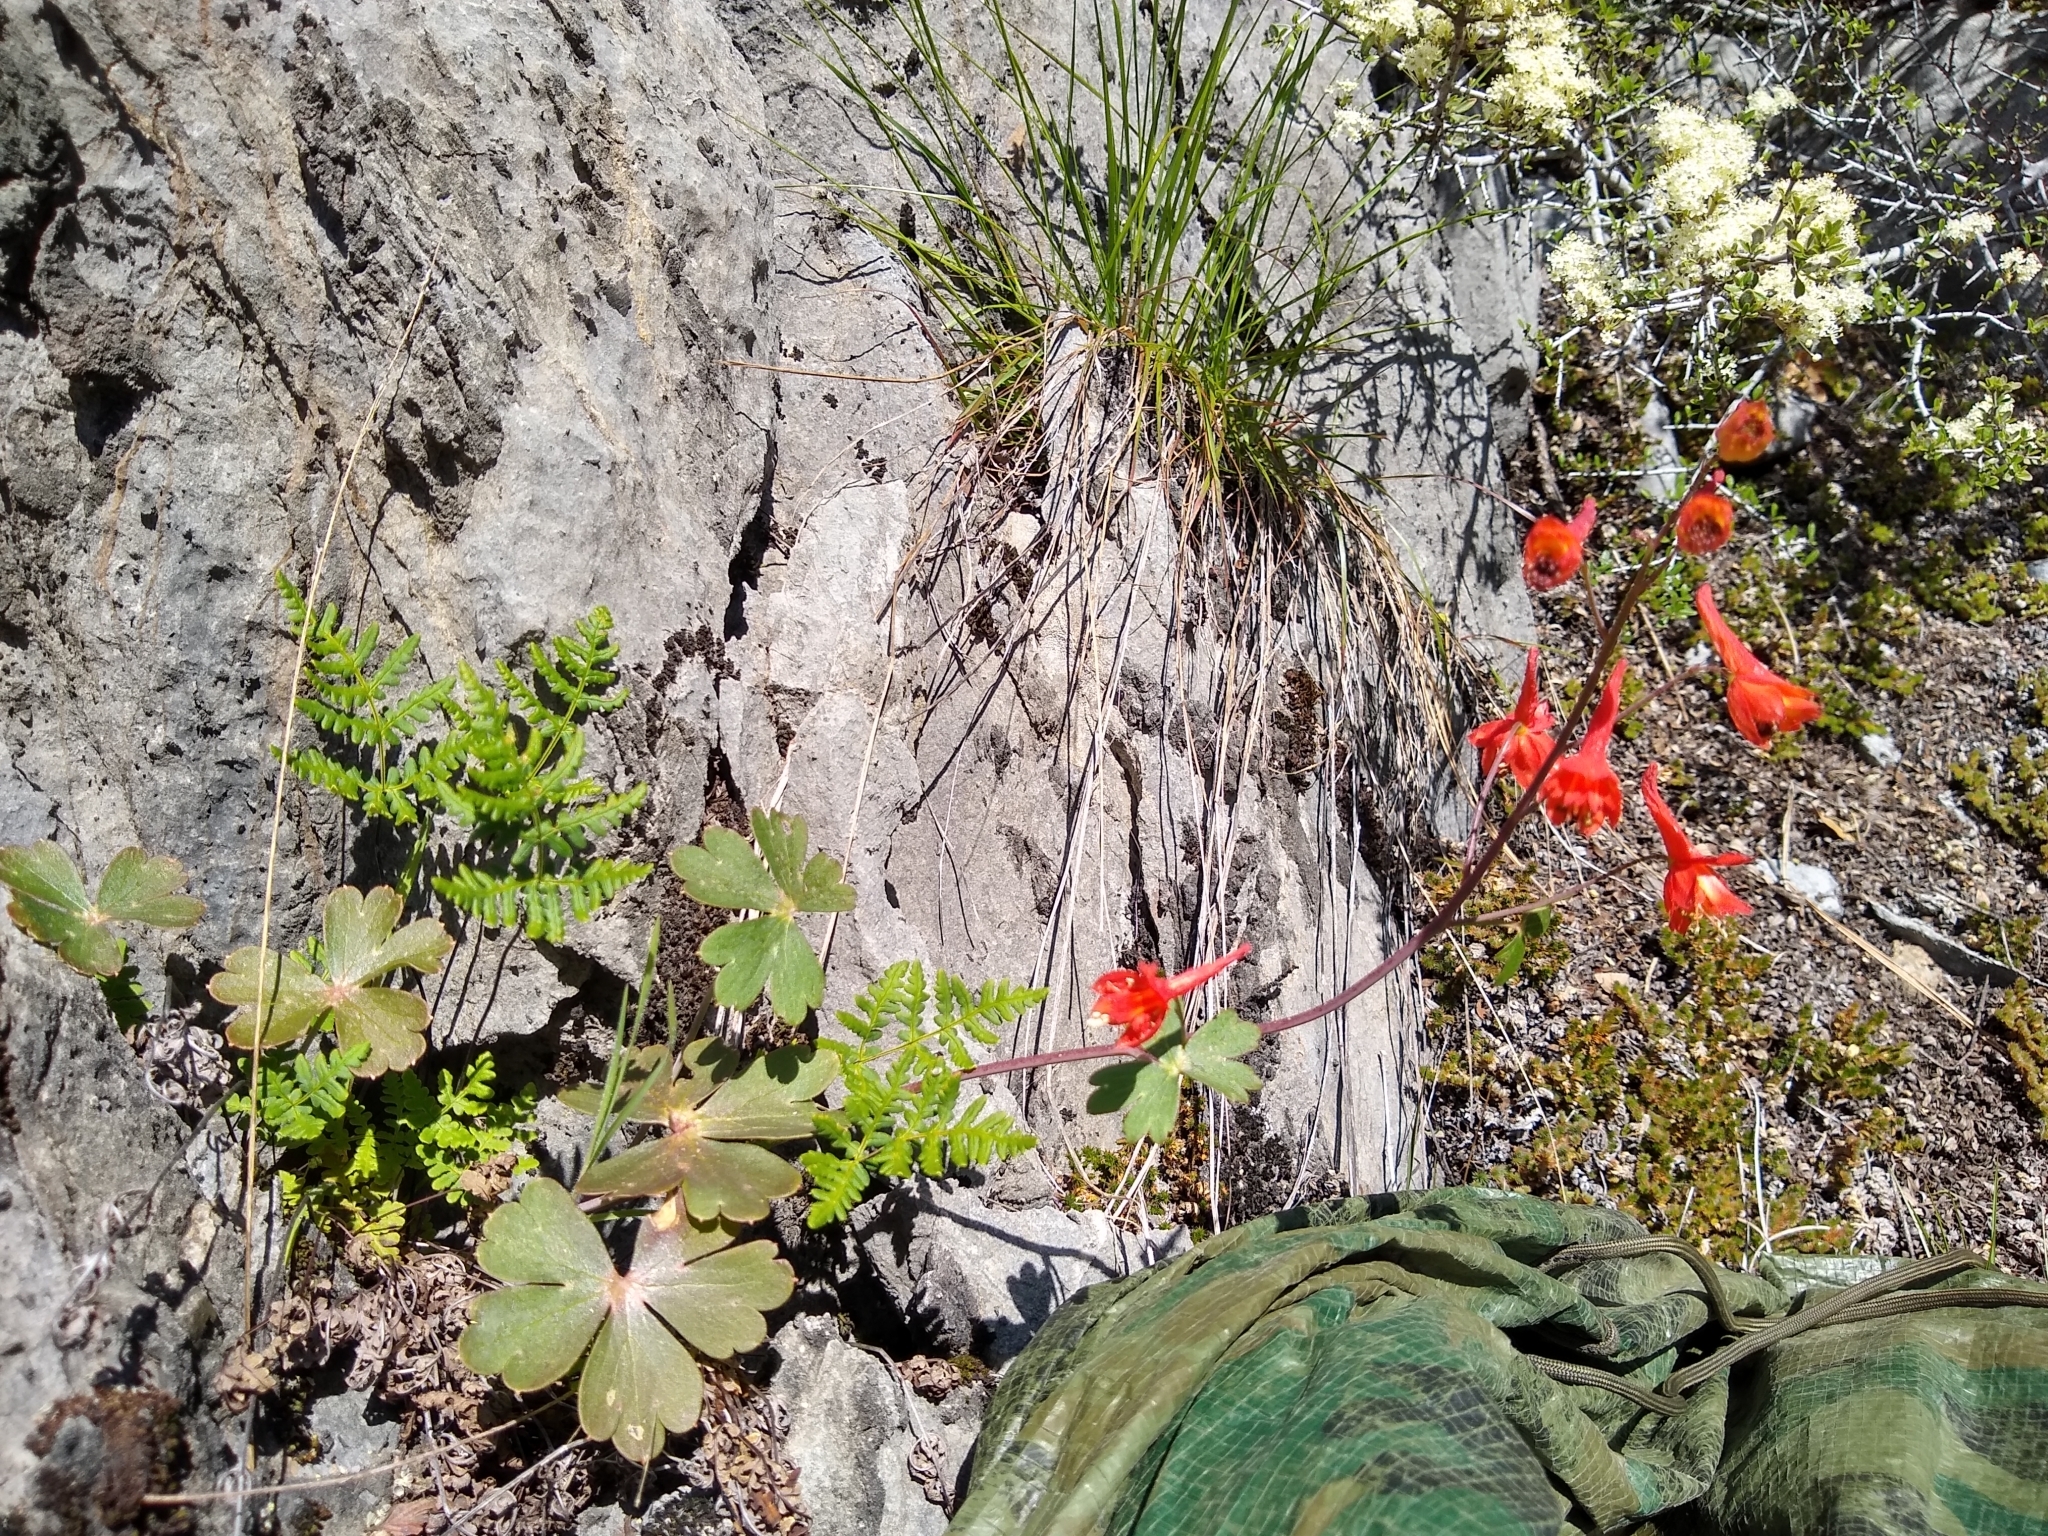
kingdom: Plantae
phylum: Tracheophyta
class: Magnoliopsida
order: Ranunculales
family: Ranunculaceae
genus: Delphinium
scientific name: Delphinium nudicaule
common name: Red larkspur
